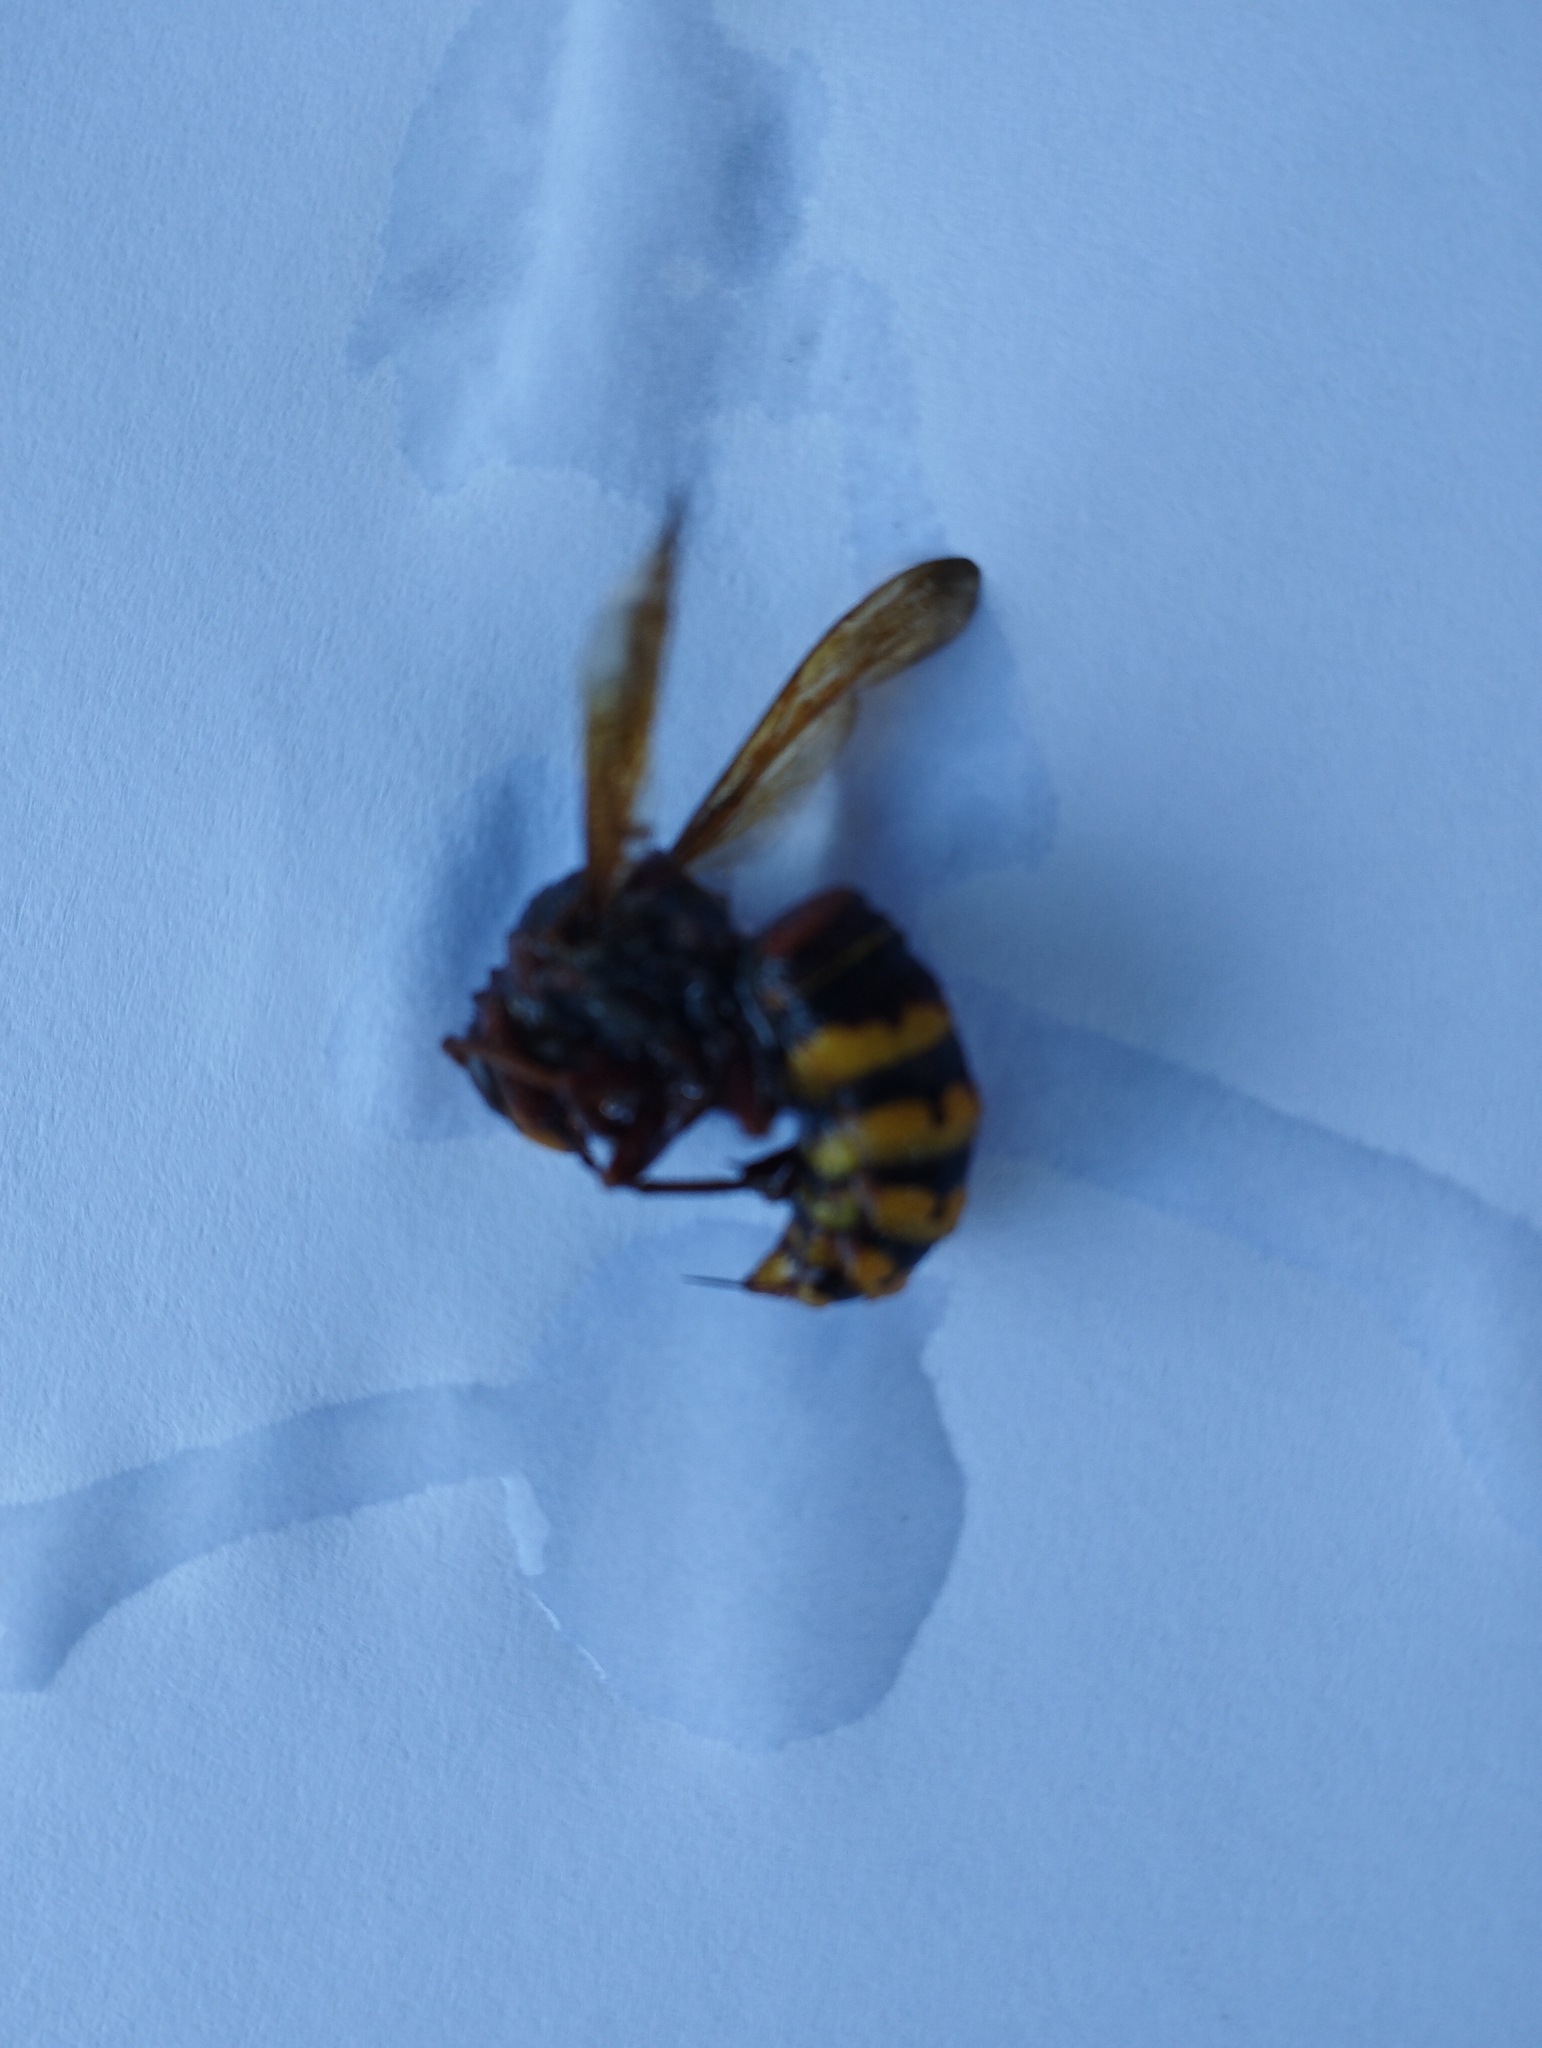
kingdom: Animalia
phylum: Arthropoda
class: Insecta
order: Hymenoptera
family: Vespidae
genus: Vespa
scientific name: Vespa crabro
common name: Hornet
